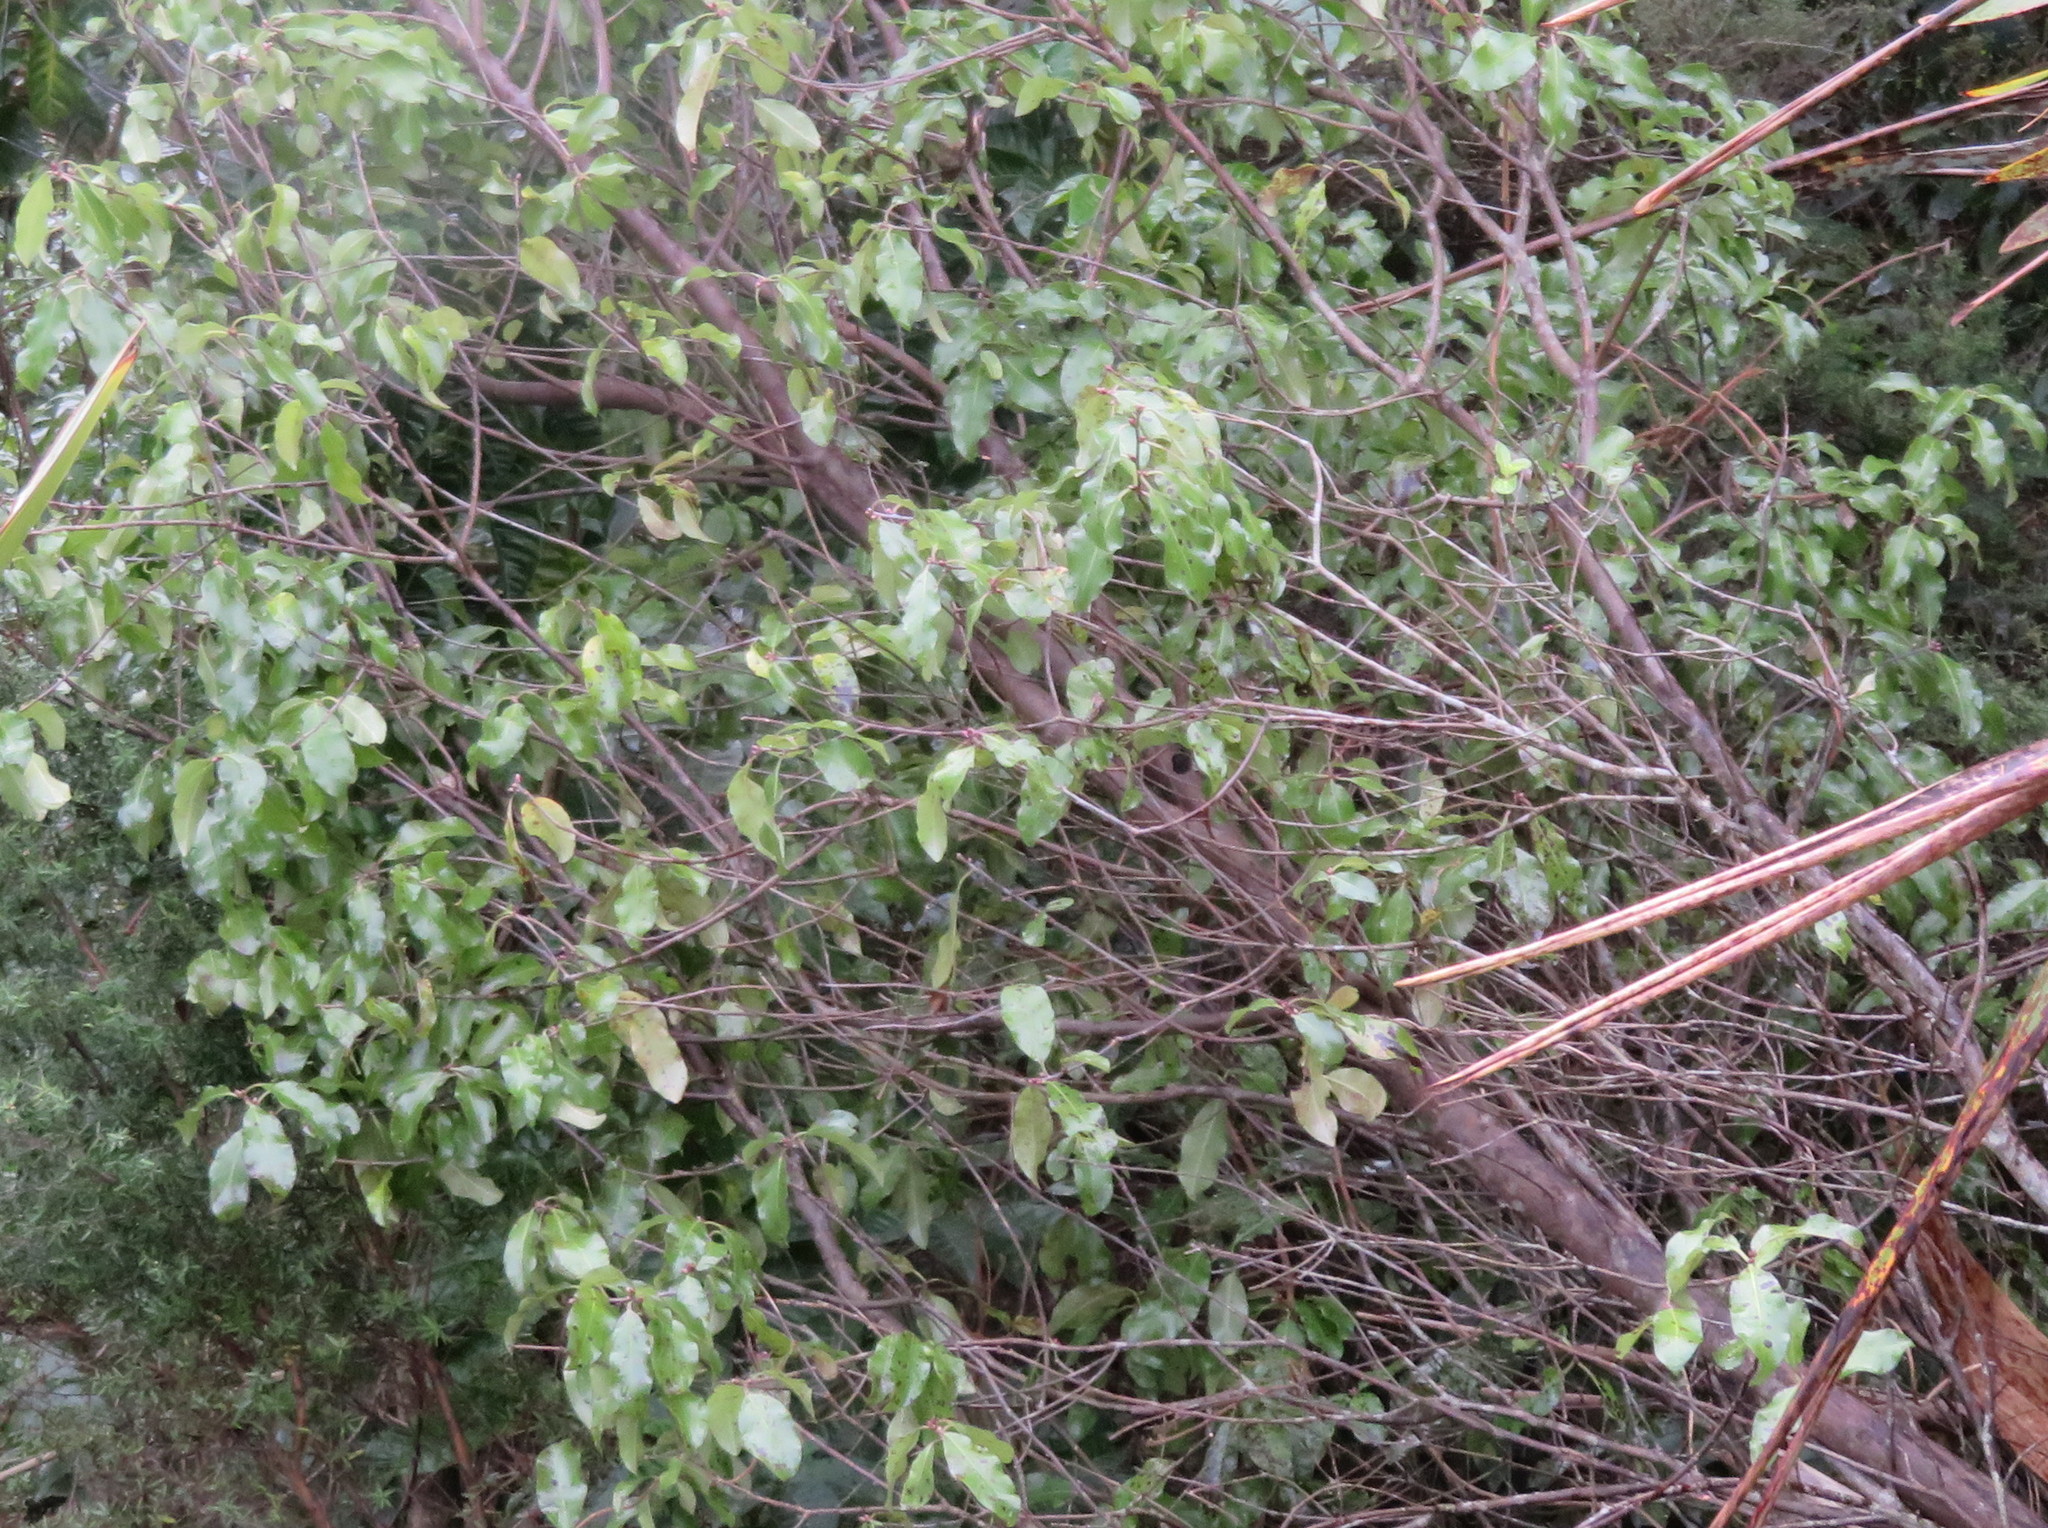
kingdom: Plantae
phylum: Tracheophyta
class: Magnoliopsida
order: Apiales
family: Pittosporaceae
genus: Pittosporum
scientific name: Pittosporum tenuifolium
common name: Kohuhu
